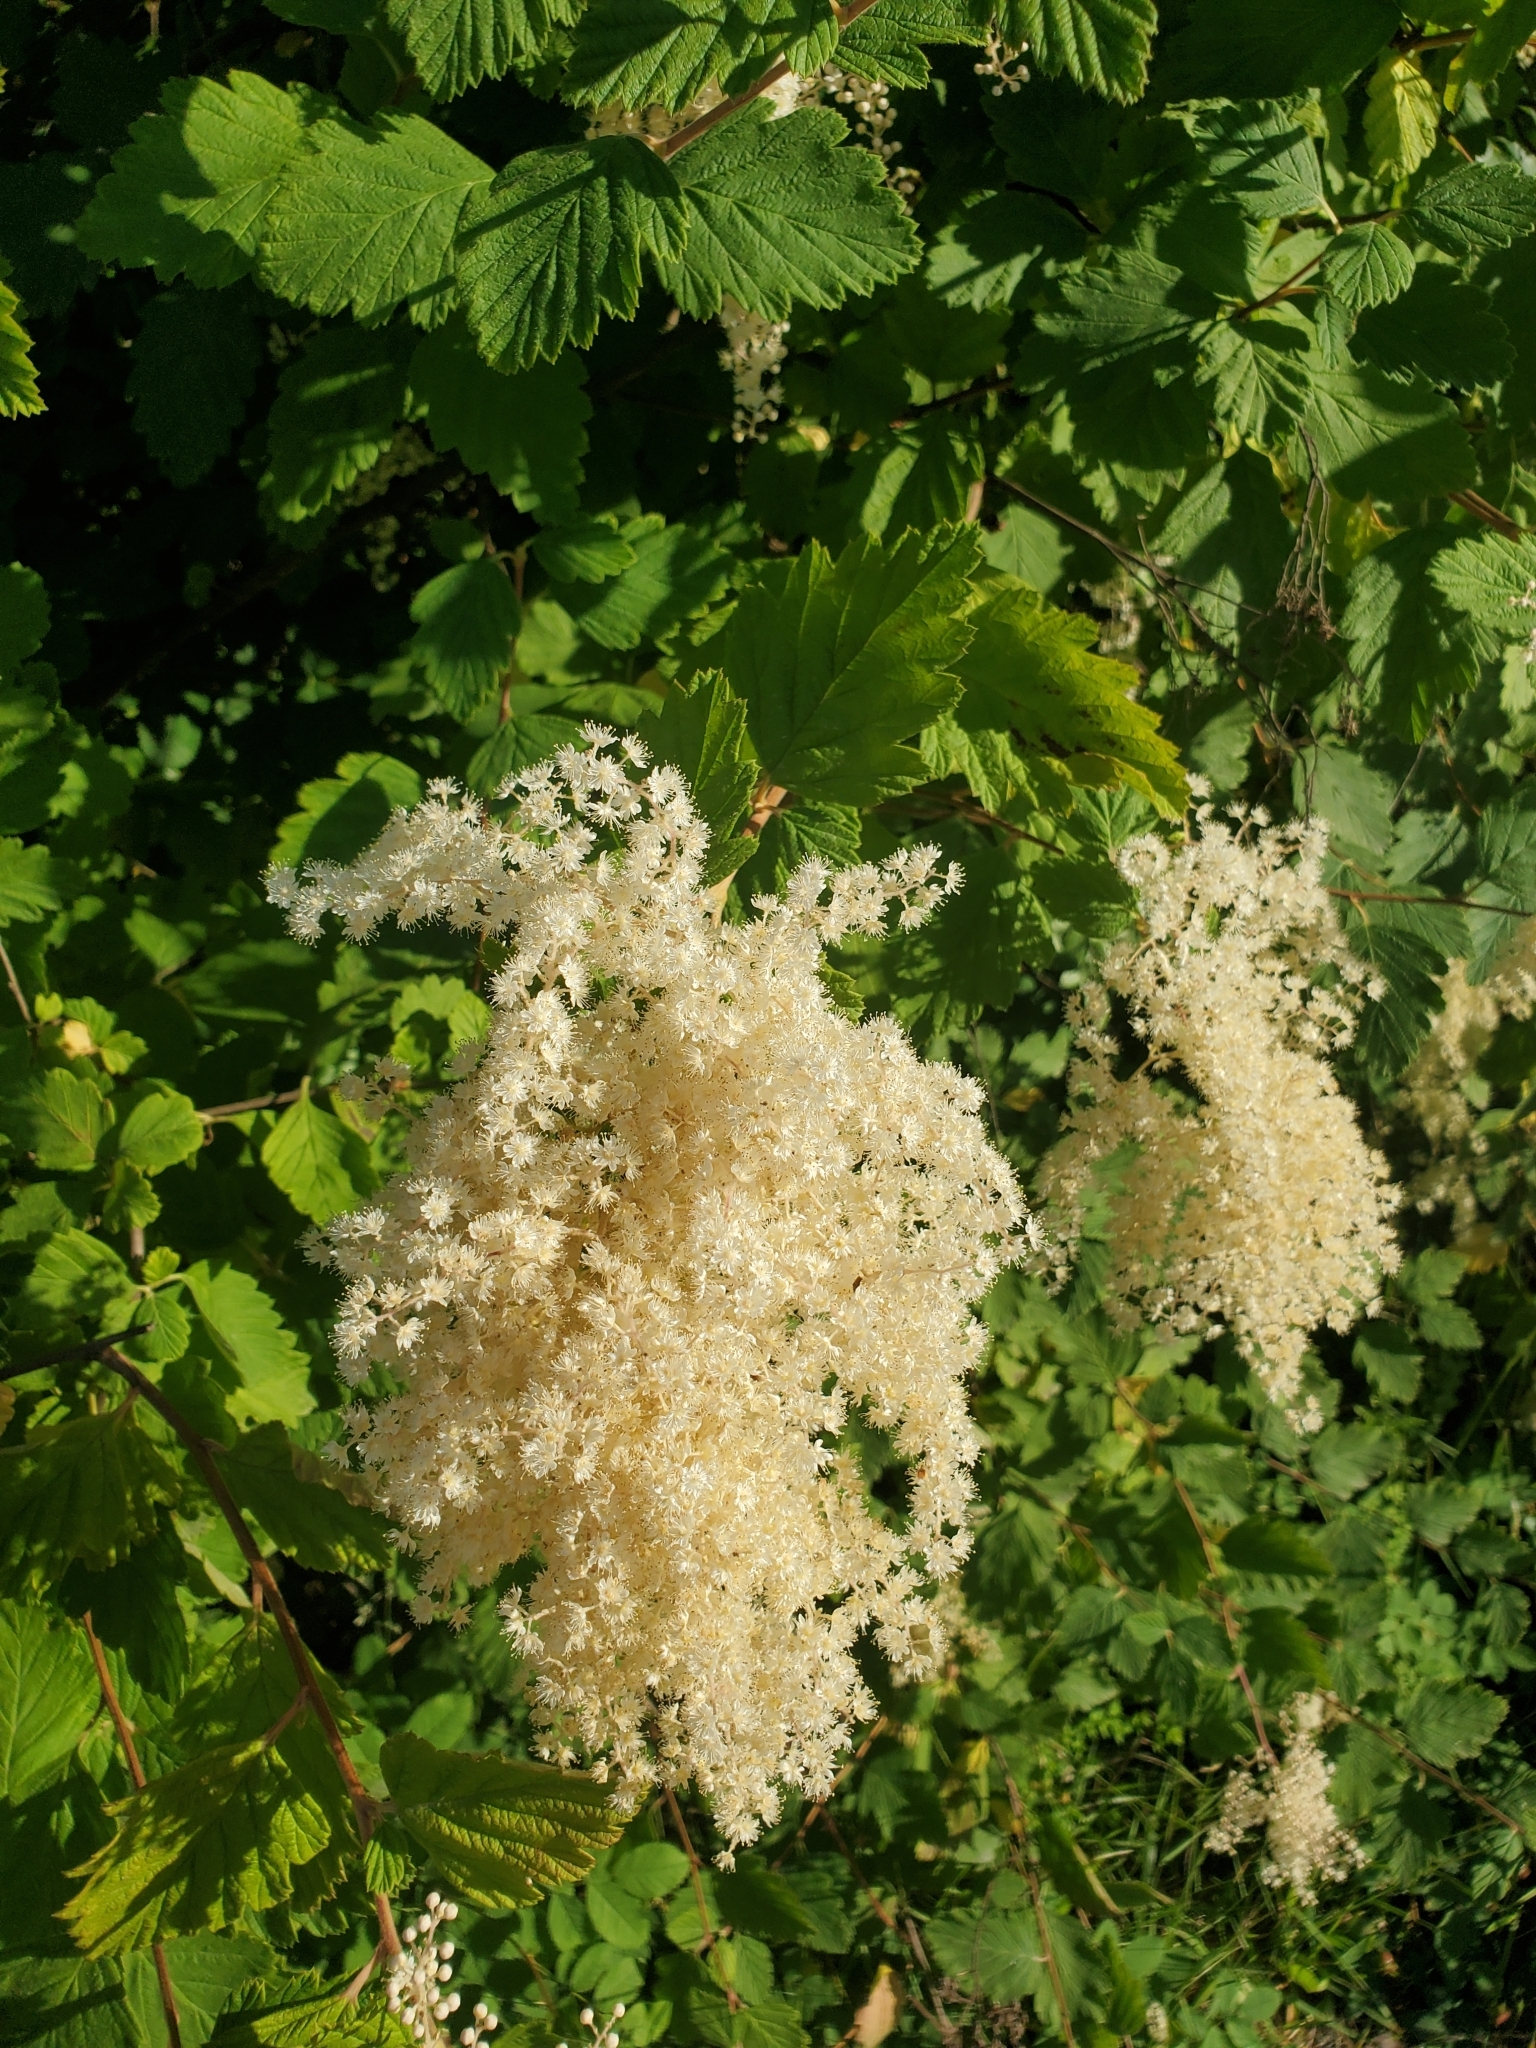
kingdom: Plantae
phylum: Tracheophyta
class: Magnoliopsida
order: Rosales
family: Rosaceae
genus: Holodiscus
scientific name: Holodiscus discolor
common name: Oceanspray
